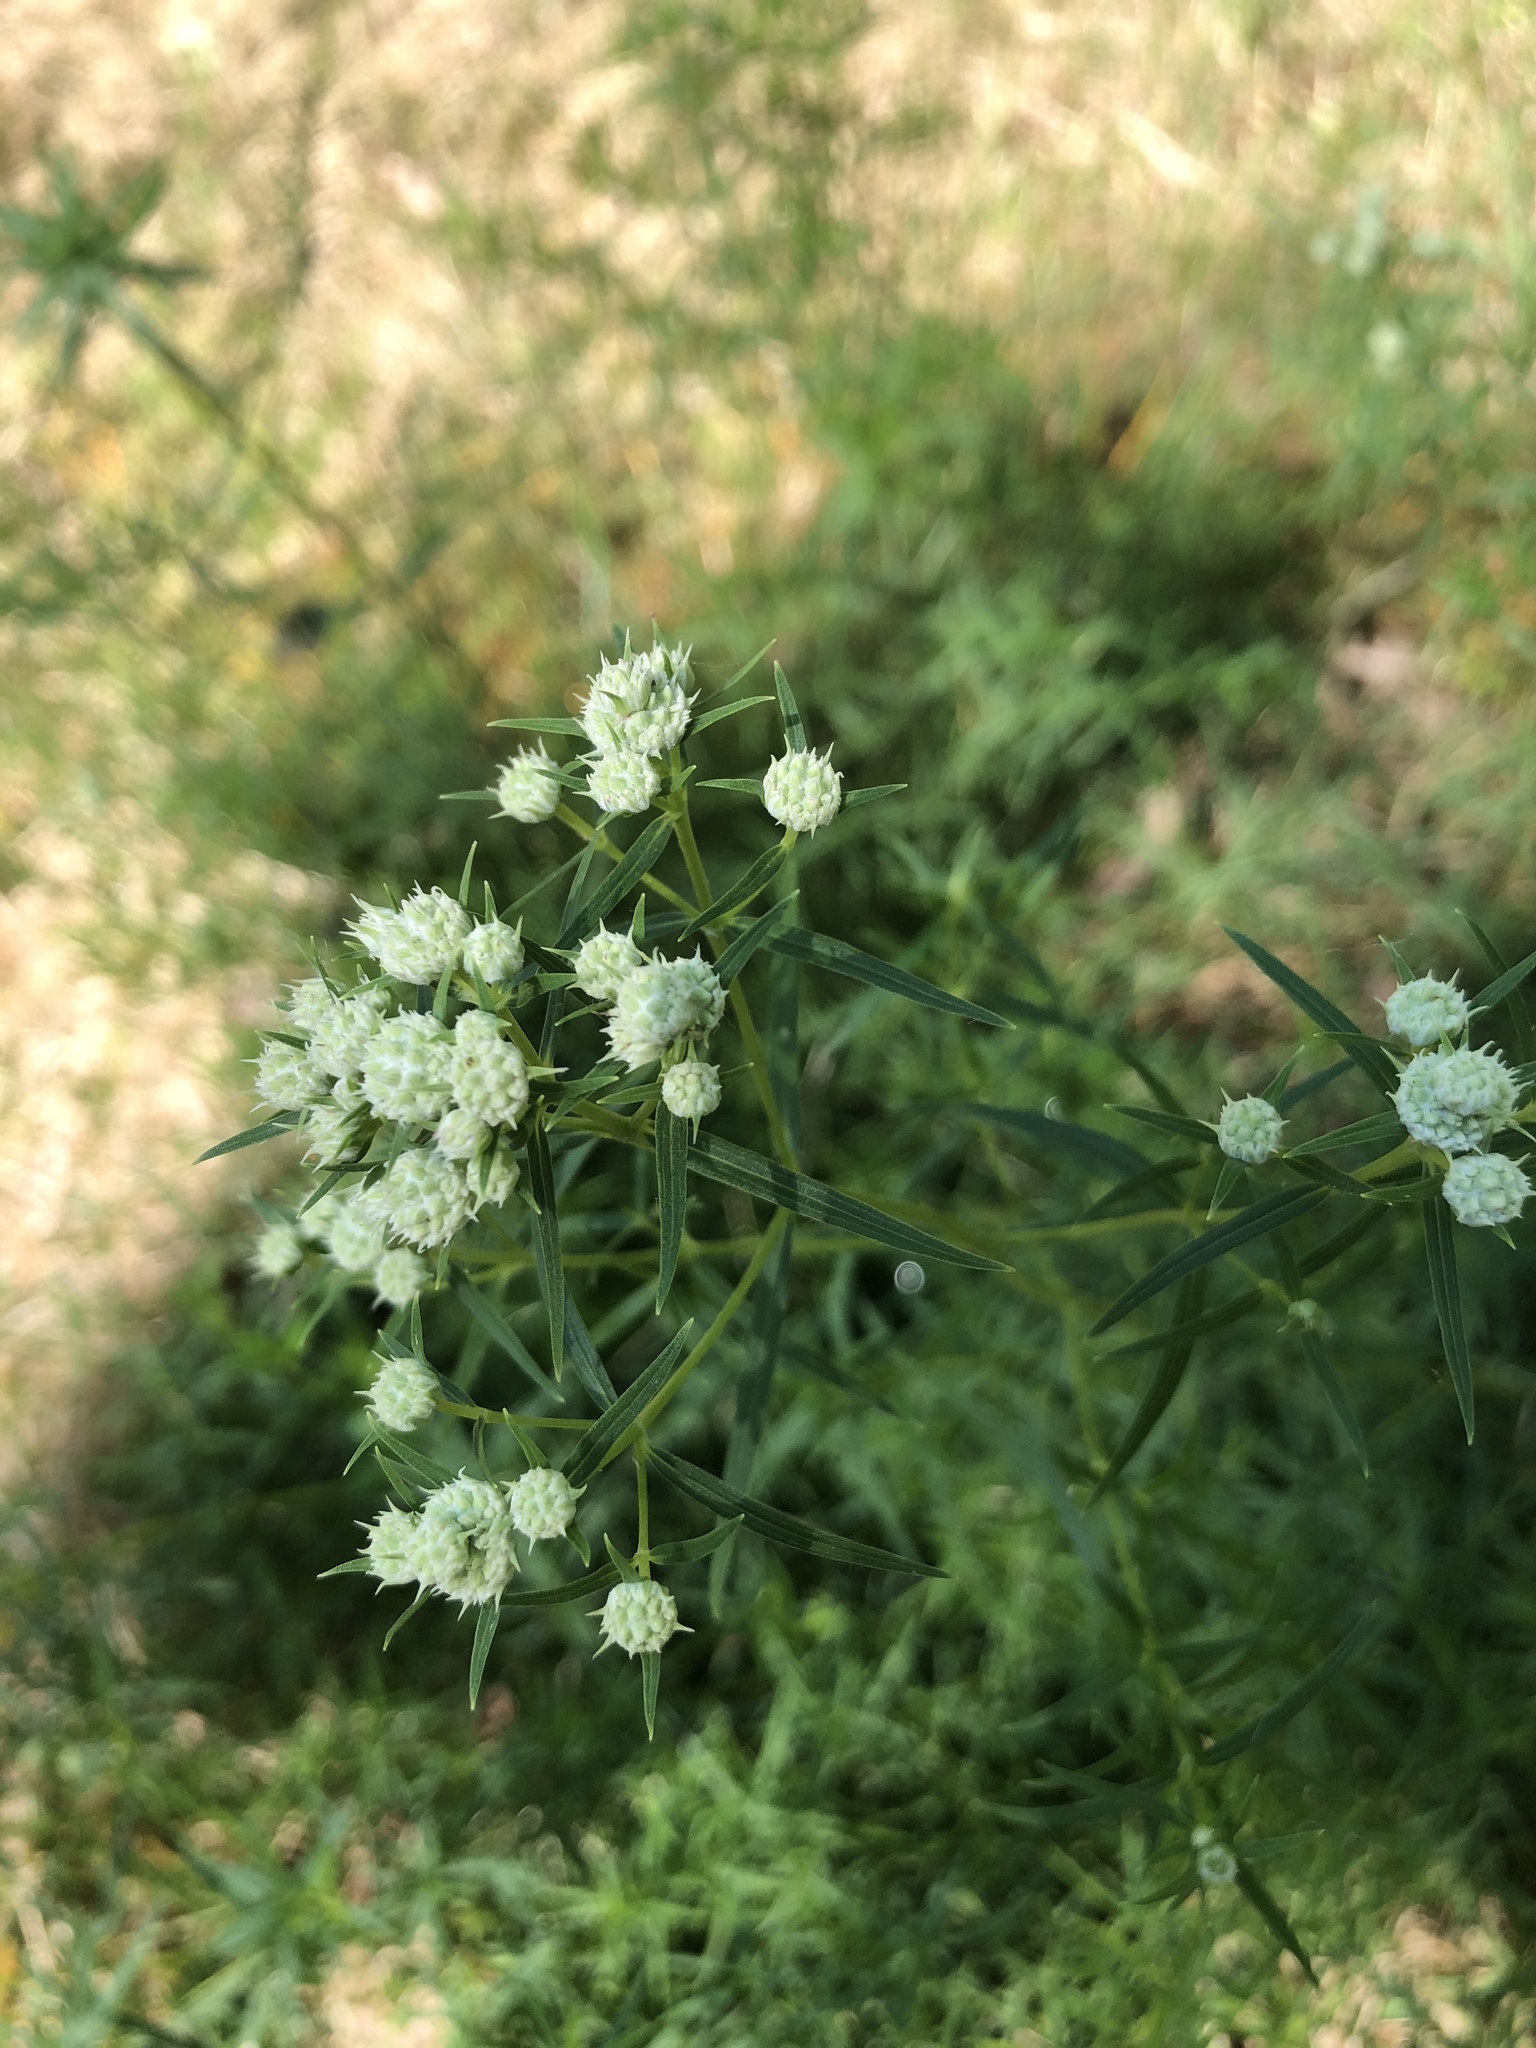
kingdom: Plantae
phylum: Tracheophyta
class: Magnoliopsida
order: Lamiales
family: Lamiaceae
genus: Pycnanthemum
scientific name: Pycnanthemum tenuifolium
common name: Narrow-leaf mountain-mint
